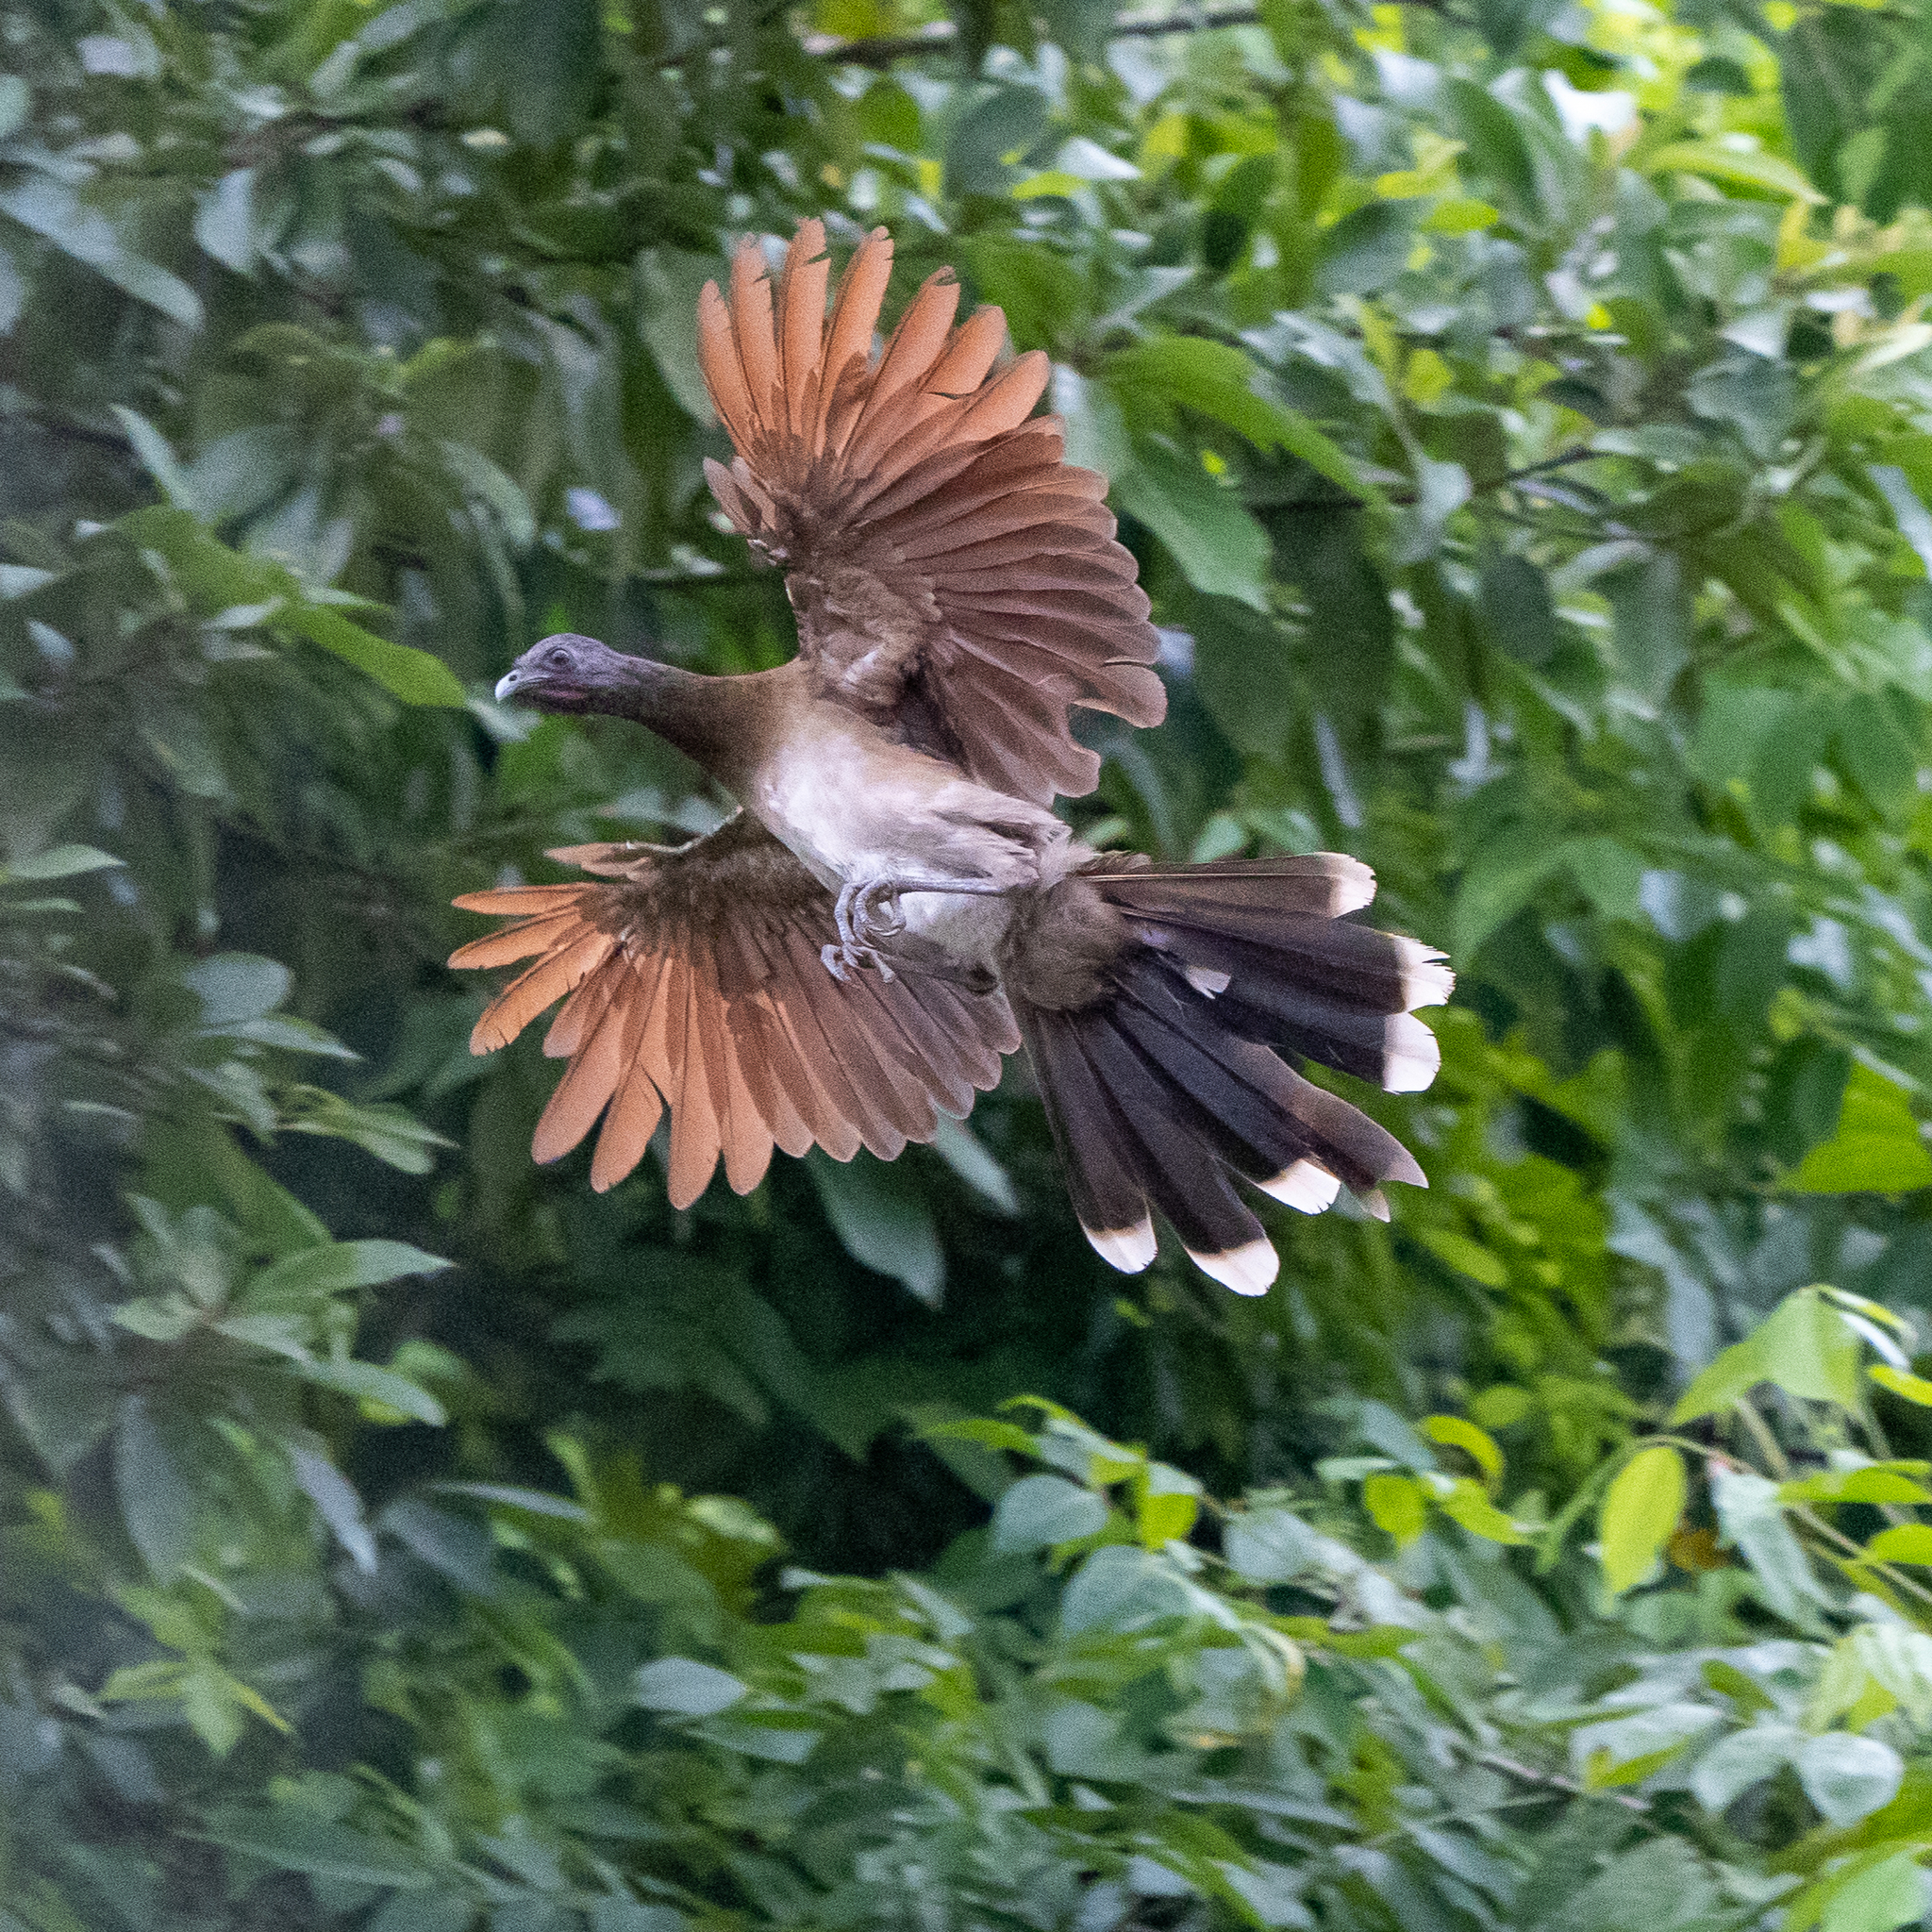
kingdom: Animalia
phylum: Chordata
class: Aves
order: Galliformes
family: Cracidae
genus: Ortalis
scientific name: Ortalis cinereiceps
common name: Grey-headed chachalaca
